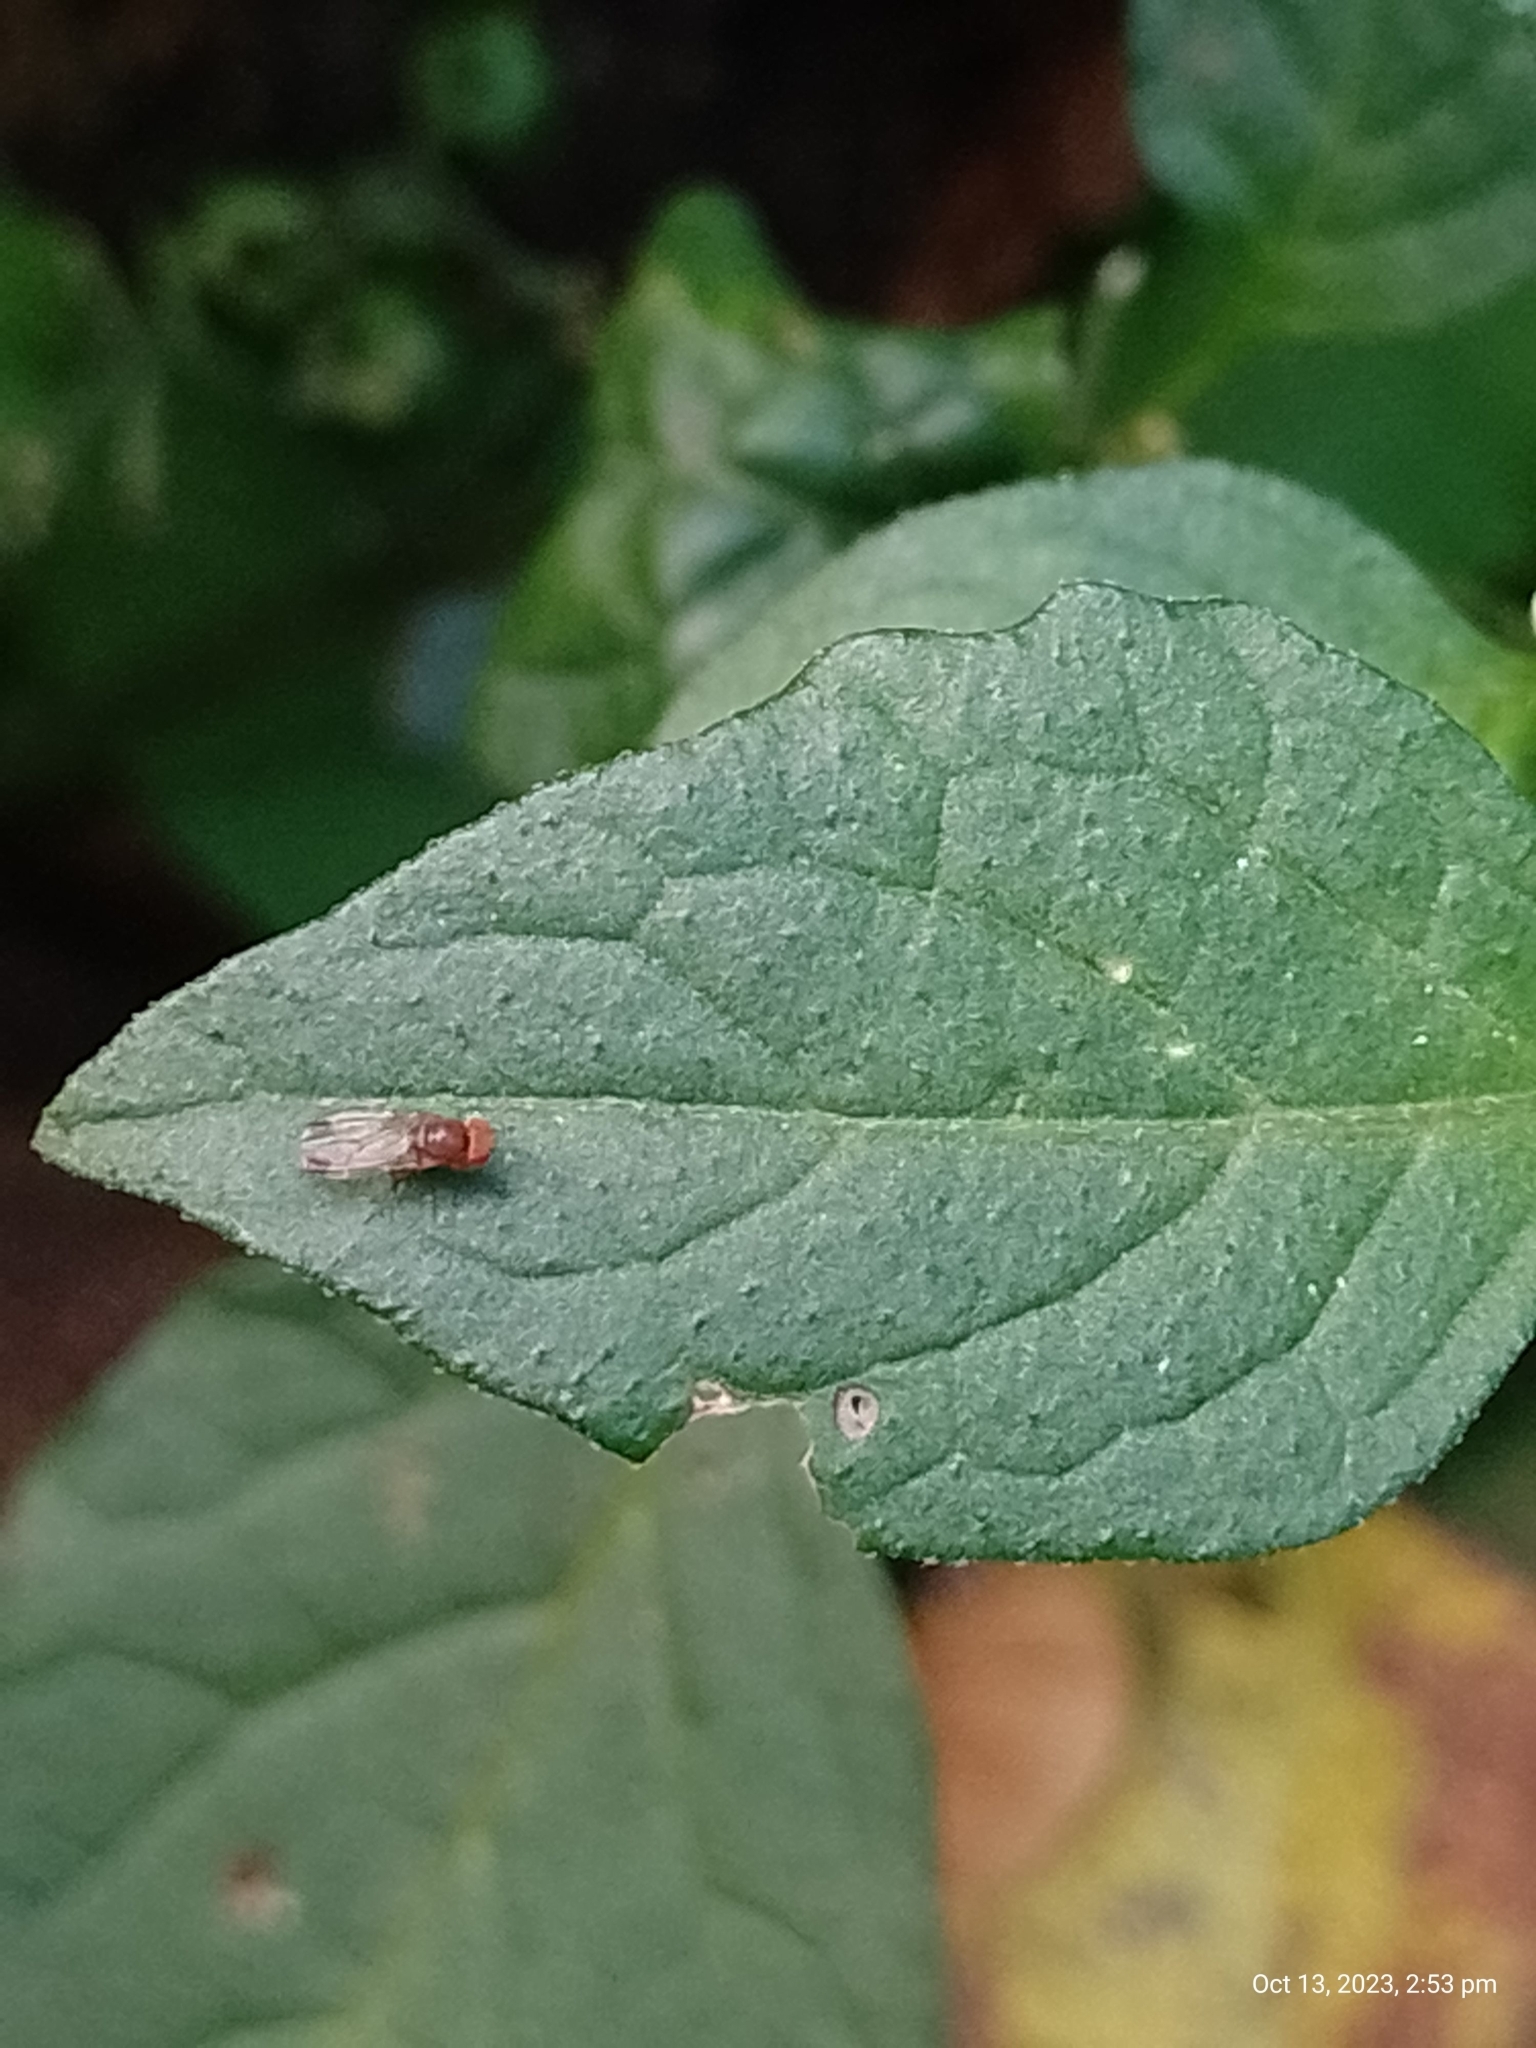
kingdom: Animalia
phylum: Arthropoda
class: Insecta
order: Diptera
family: Drosophilidae
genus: Drosophila
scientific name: Drosophila suzukii
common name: Spotted-wing drosophila
